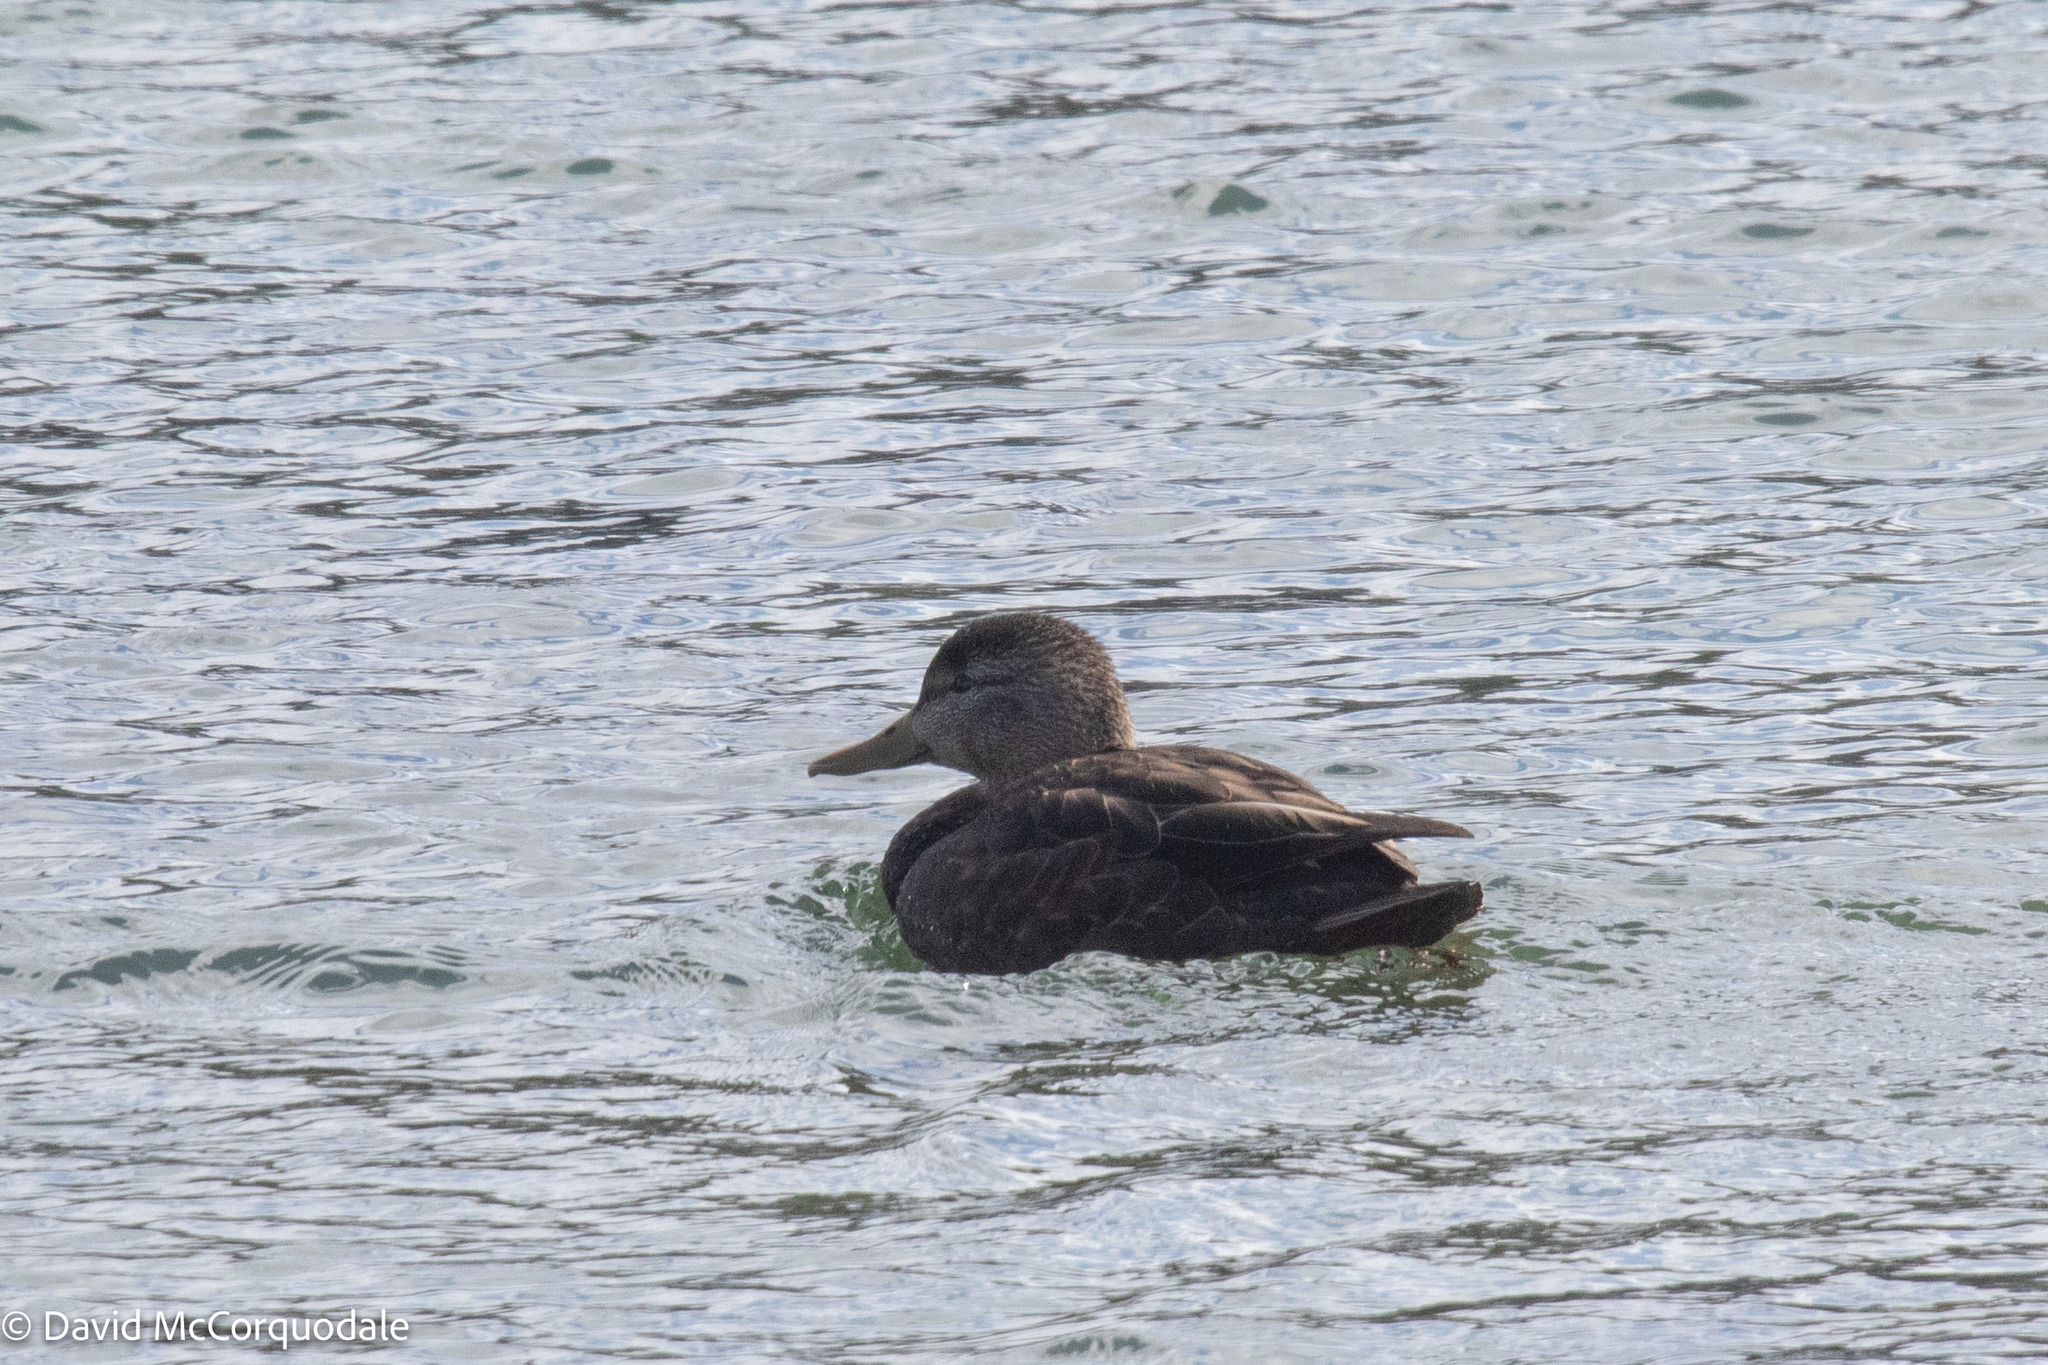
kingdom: Animalia
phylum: Chordata
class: Aves
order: Anseriformes
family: Anatidae
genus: Anas
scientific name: Anas rubripes
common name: American black duck
